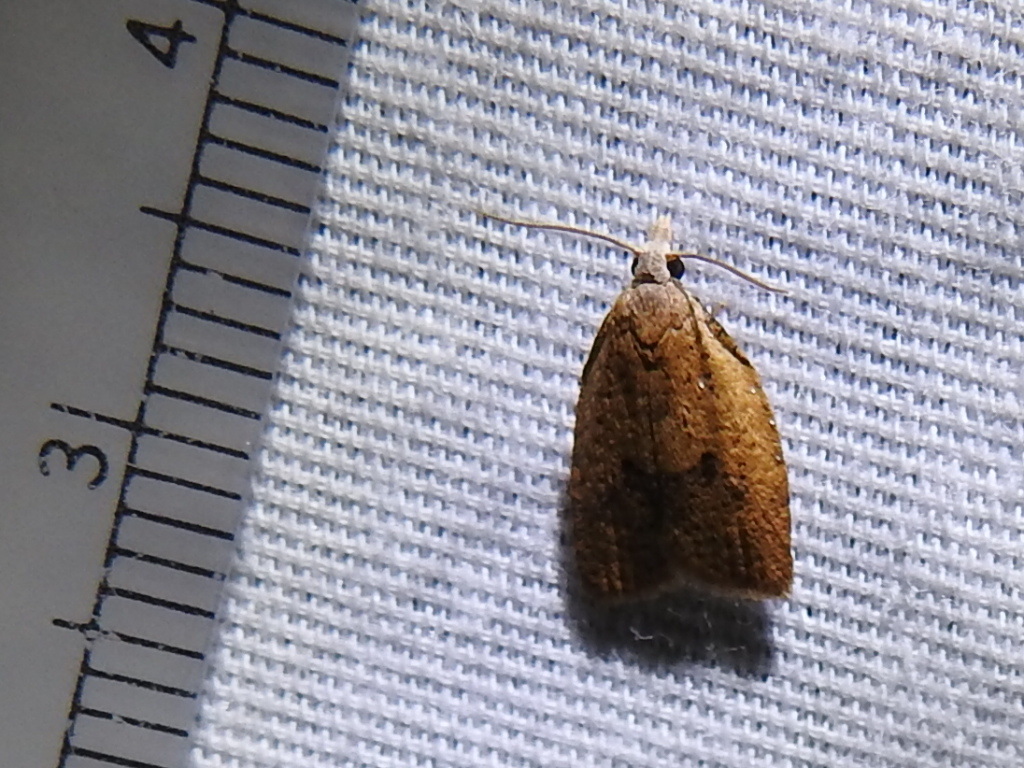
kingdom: Animalia
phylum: Arthropoda
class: Insecta
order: Lepidoptera
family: Tortricidae
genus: Sparganothoides
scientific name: Sparganothoides lentiginosana
